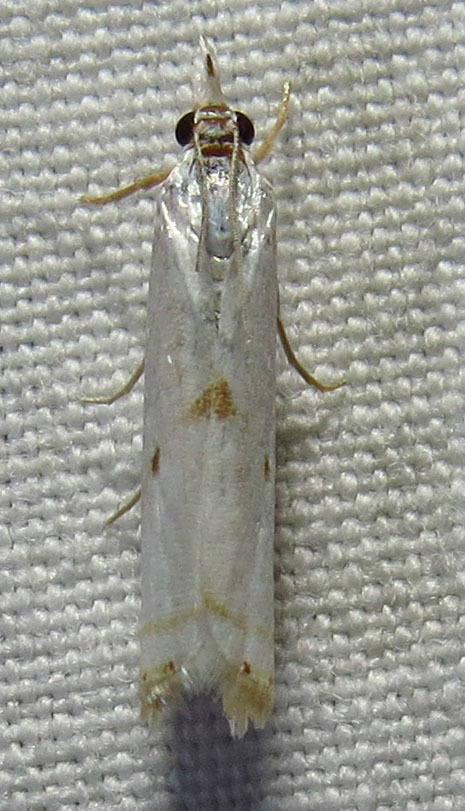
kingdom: Animalia
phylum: Arthropoda
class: Insecta
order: Lepidoptera
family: Crambidae
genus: Microcrambus
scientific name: Microcrambus biguttellus
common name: Gold-stripe grass-veneer moth
